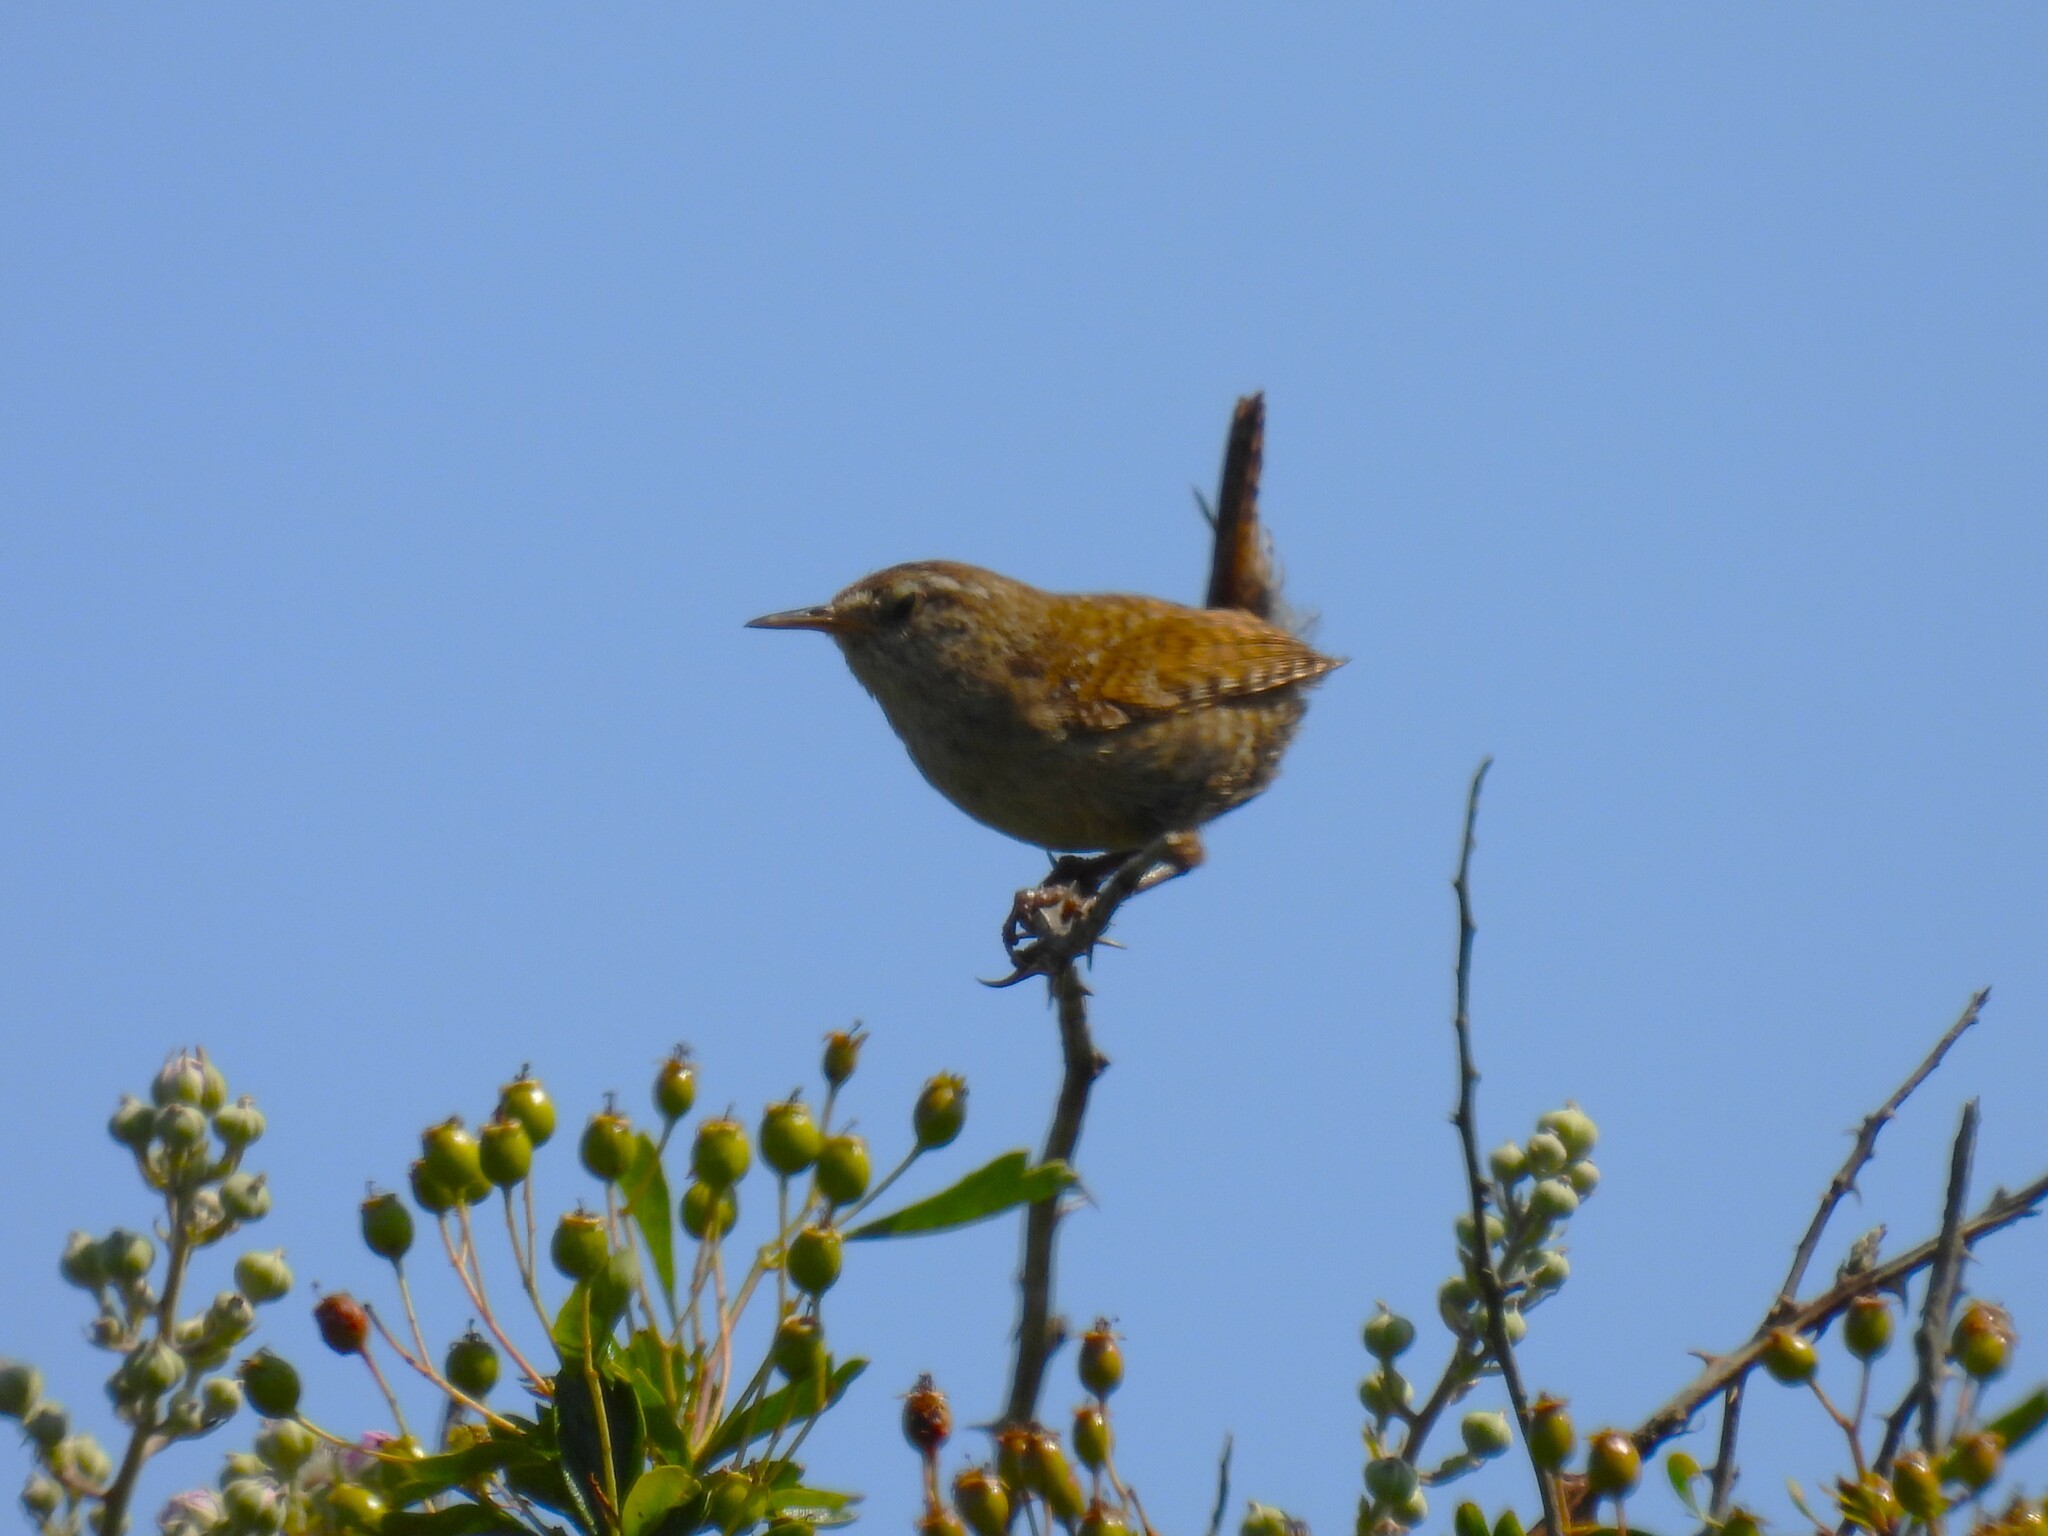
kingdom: Animalia
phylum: Chordata
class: Aves
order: Passeriformes
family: Troglodytidae
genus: Troglodytes
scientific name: Troglodytes troglodytes
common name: Eurasian wren
